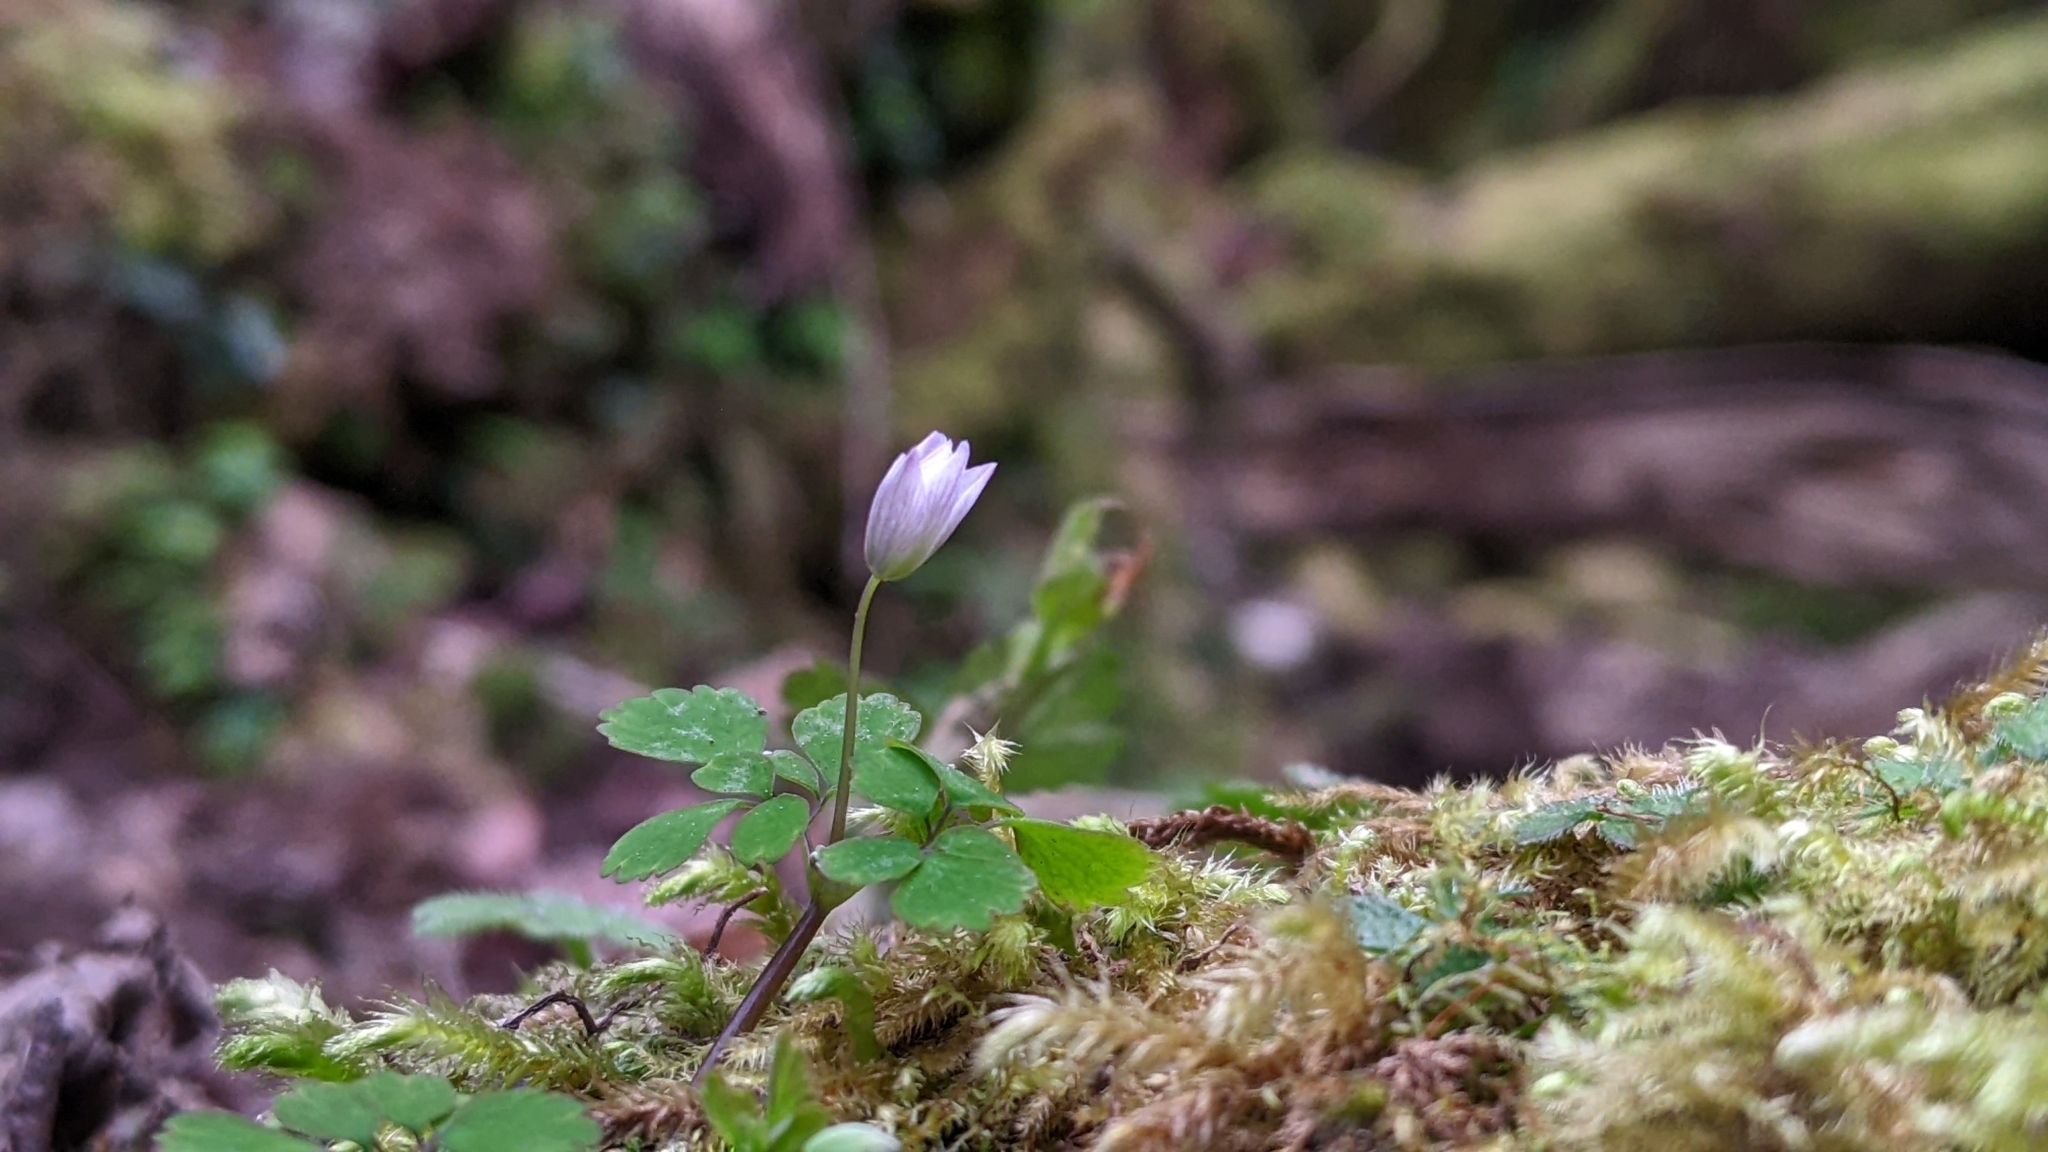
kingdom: Plantae
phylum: Tracheophyta
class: Magnoliopsida
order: Ranunculales
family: Ranunculaceae
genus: Dichocarpum
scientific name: Dichocarpum adiantifolium
